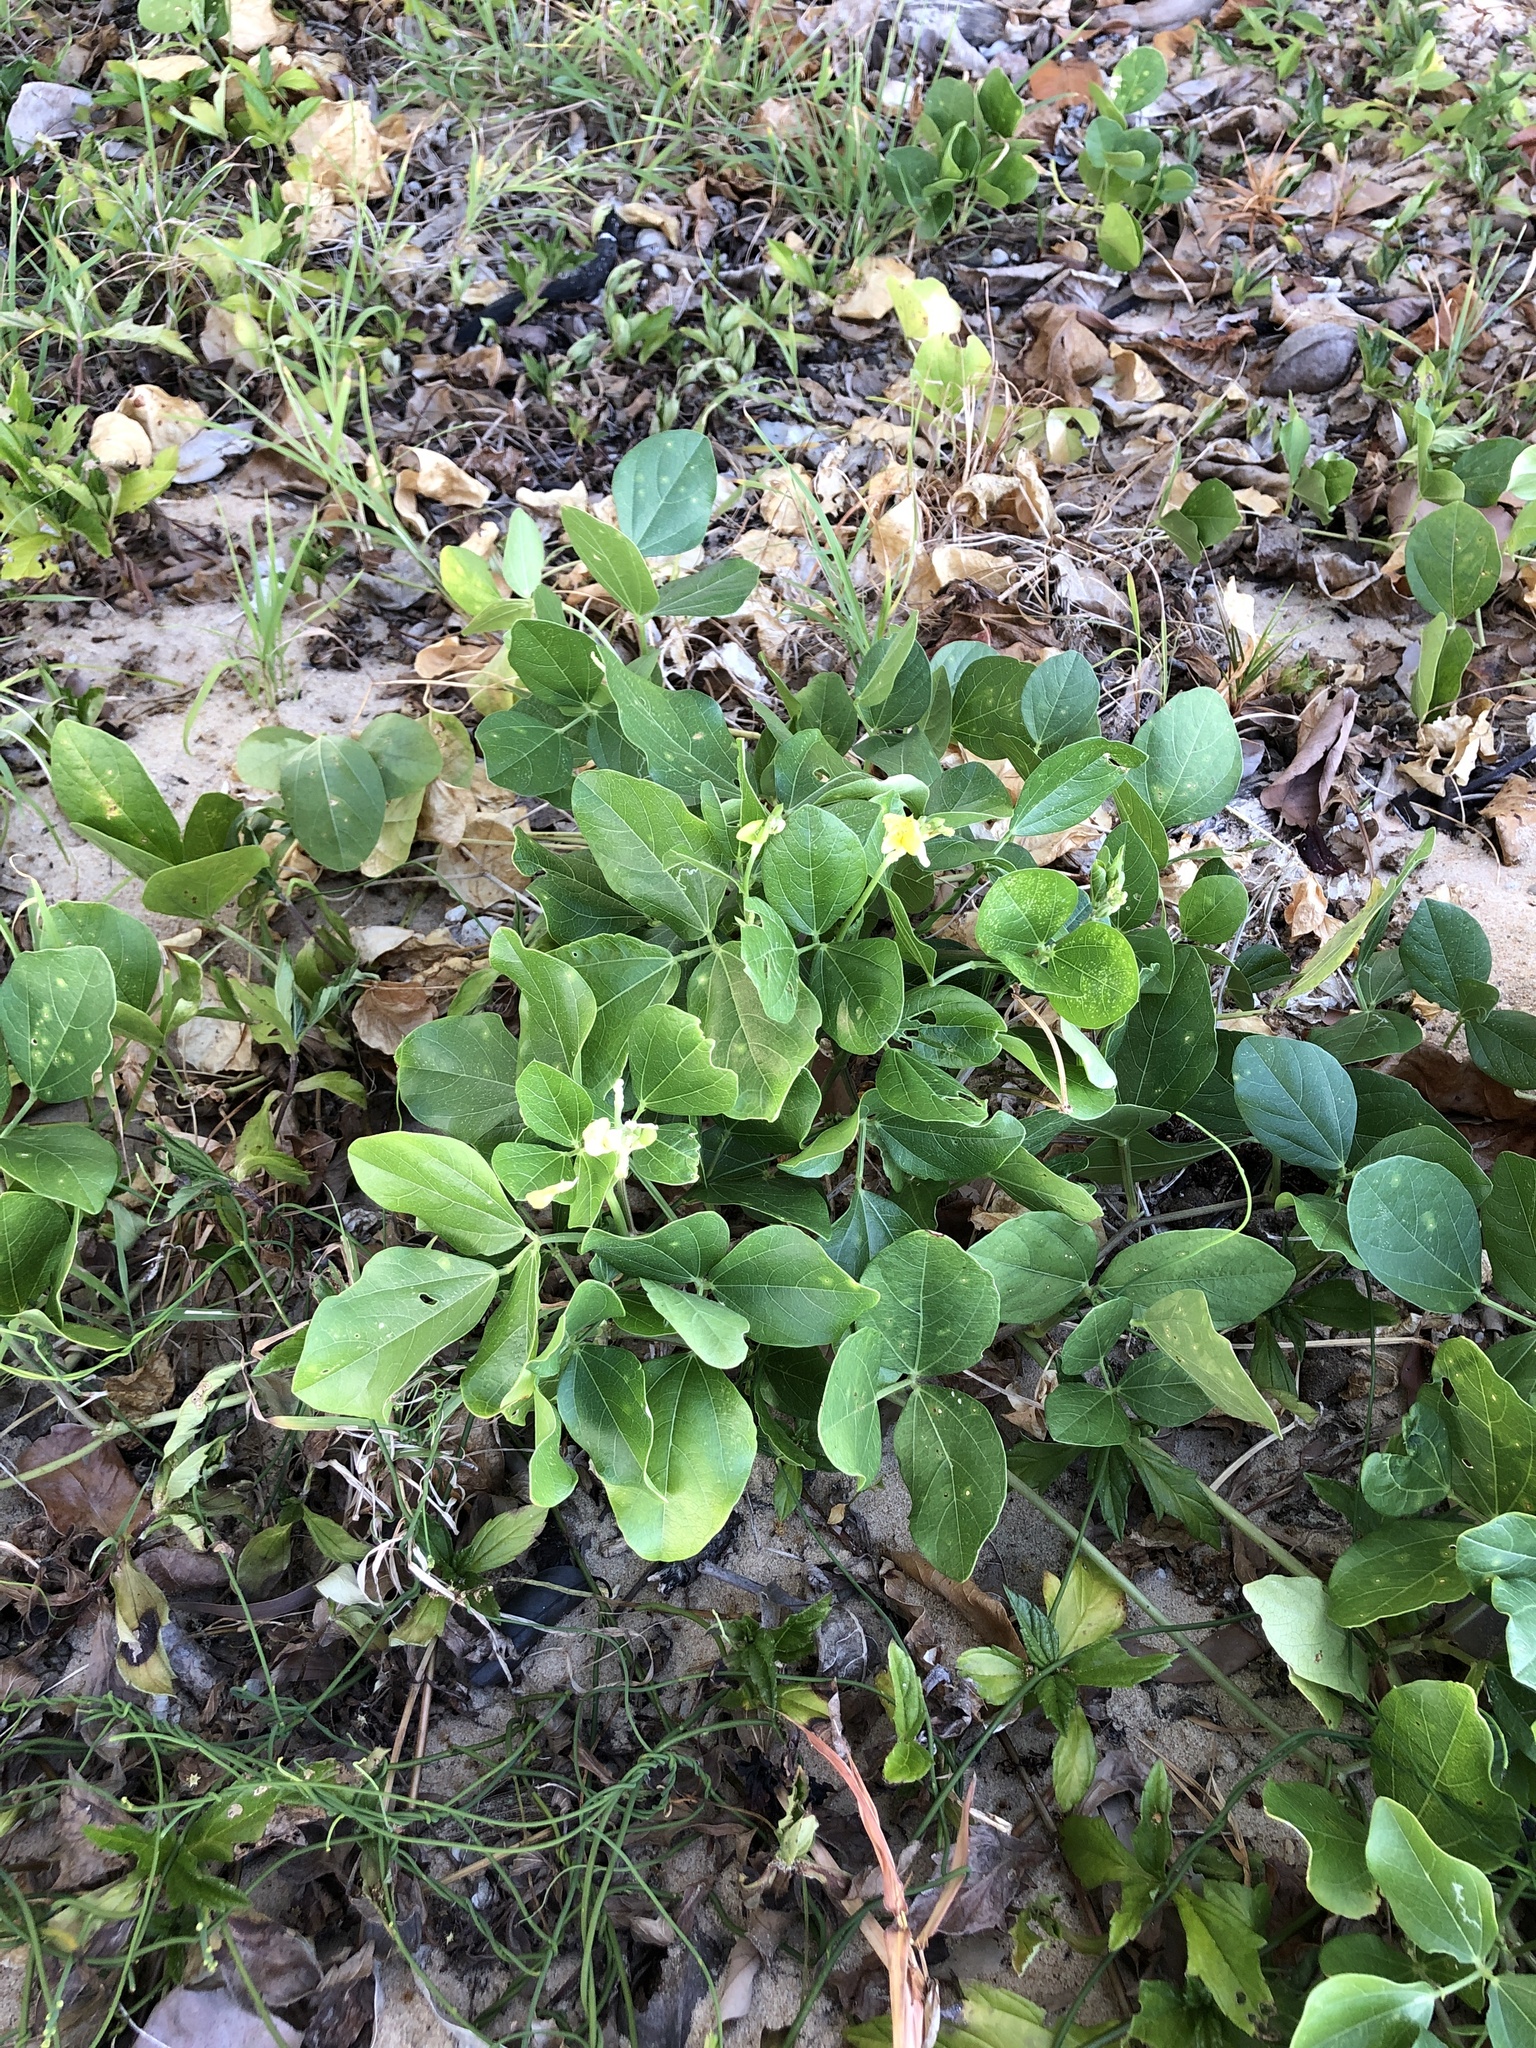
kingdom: Plantae
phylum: Tracheophyta
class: Magnoliopsida
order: Fabales
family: Fabaceae
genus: Vigna
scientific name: Vigna marina
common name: Dune-bean
